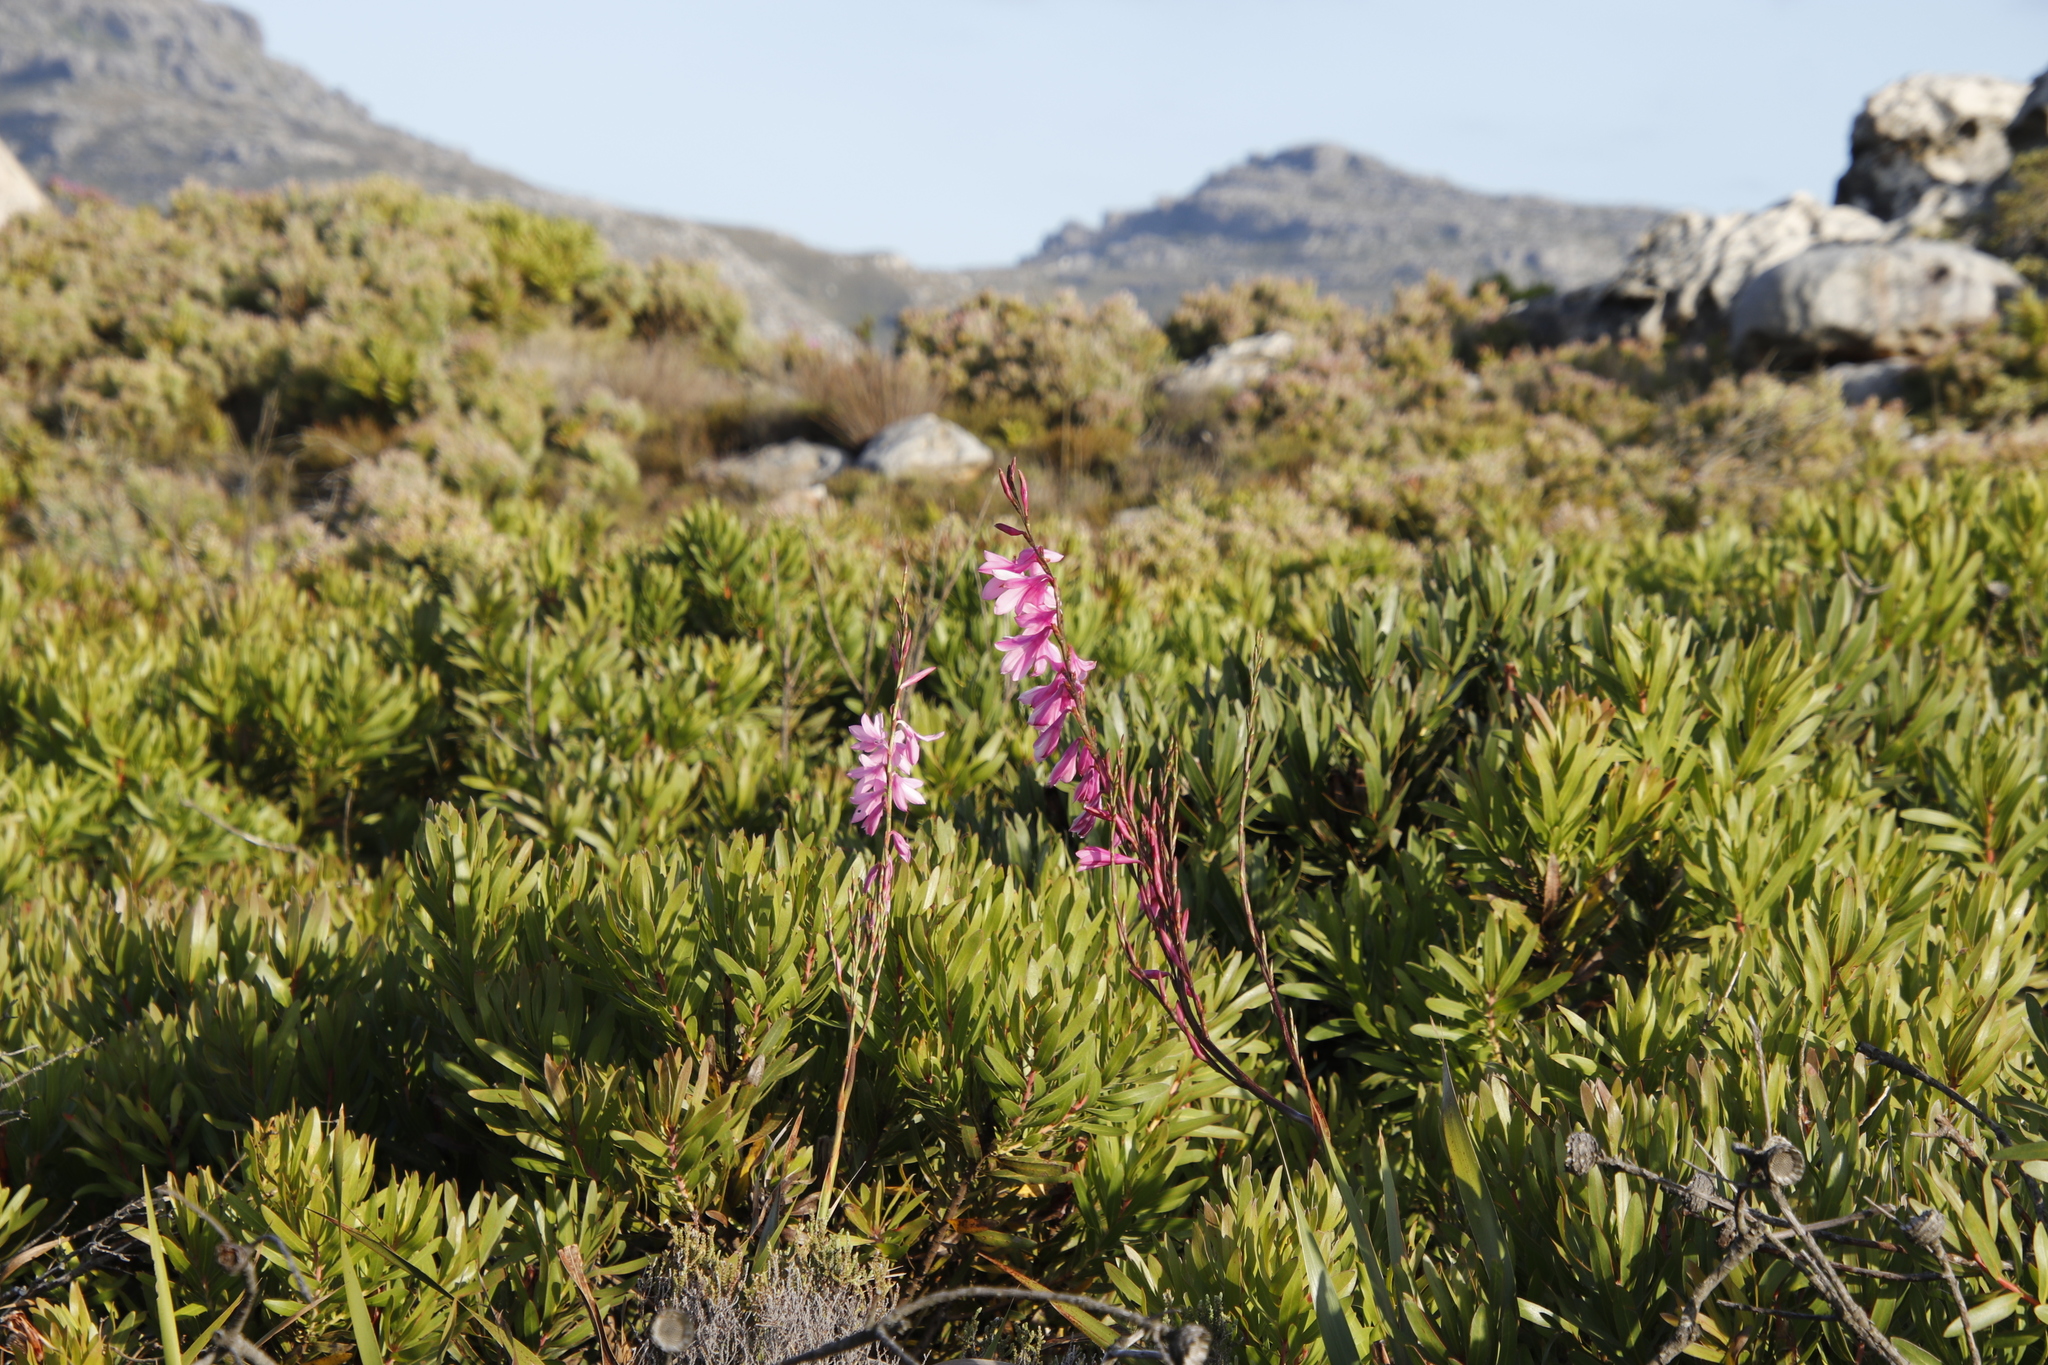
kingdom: Plantae
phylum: Tracheophyta
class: Liliopsida
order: Asparagales
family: Iridaceae
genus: Watsonia
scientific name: Watsonia borbonica
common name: Bugle-lily
